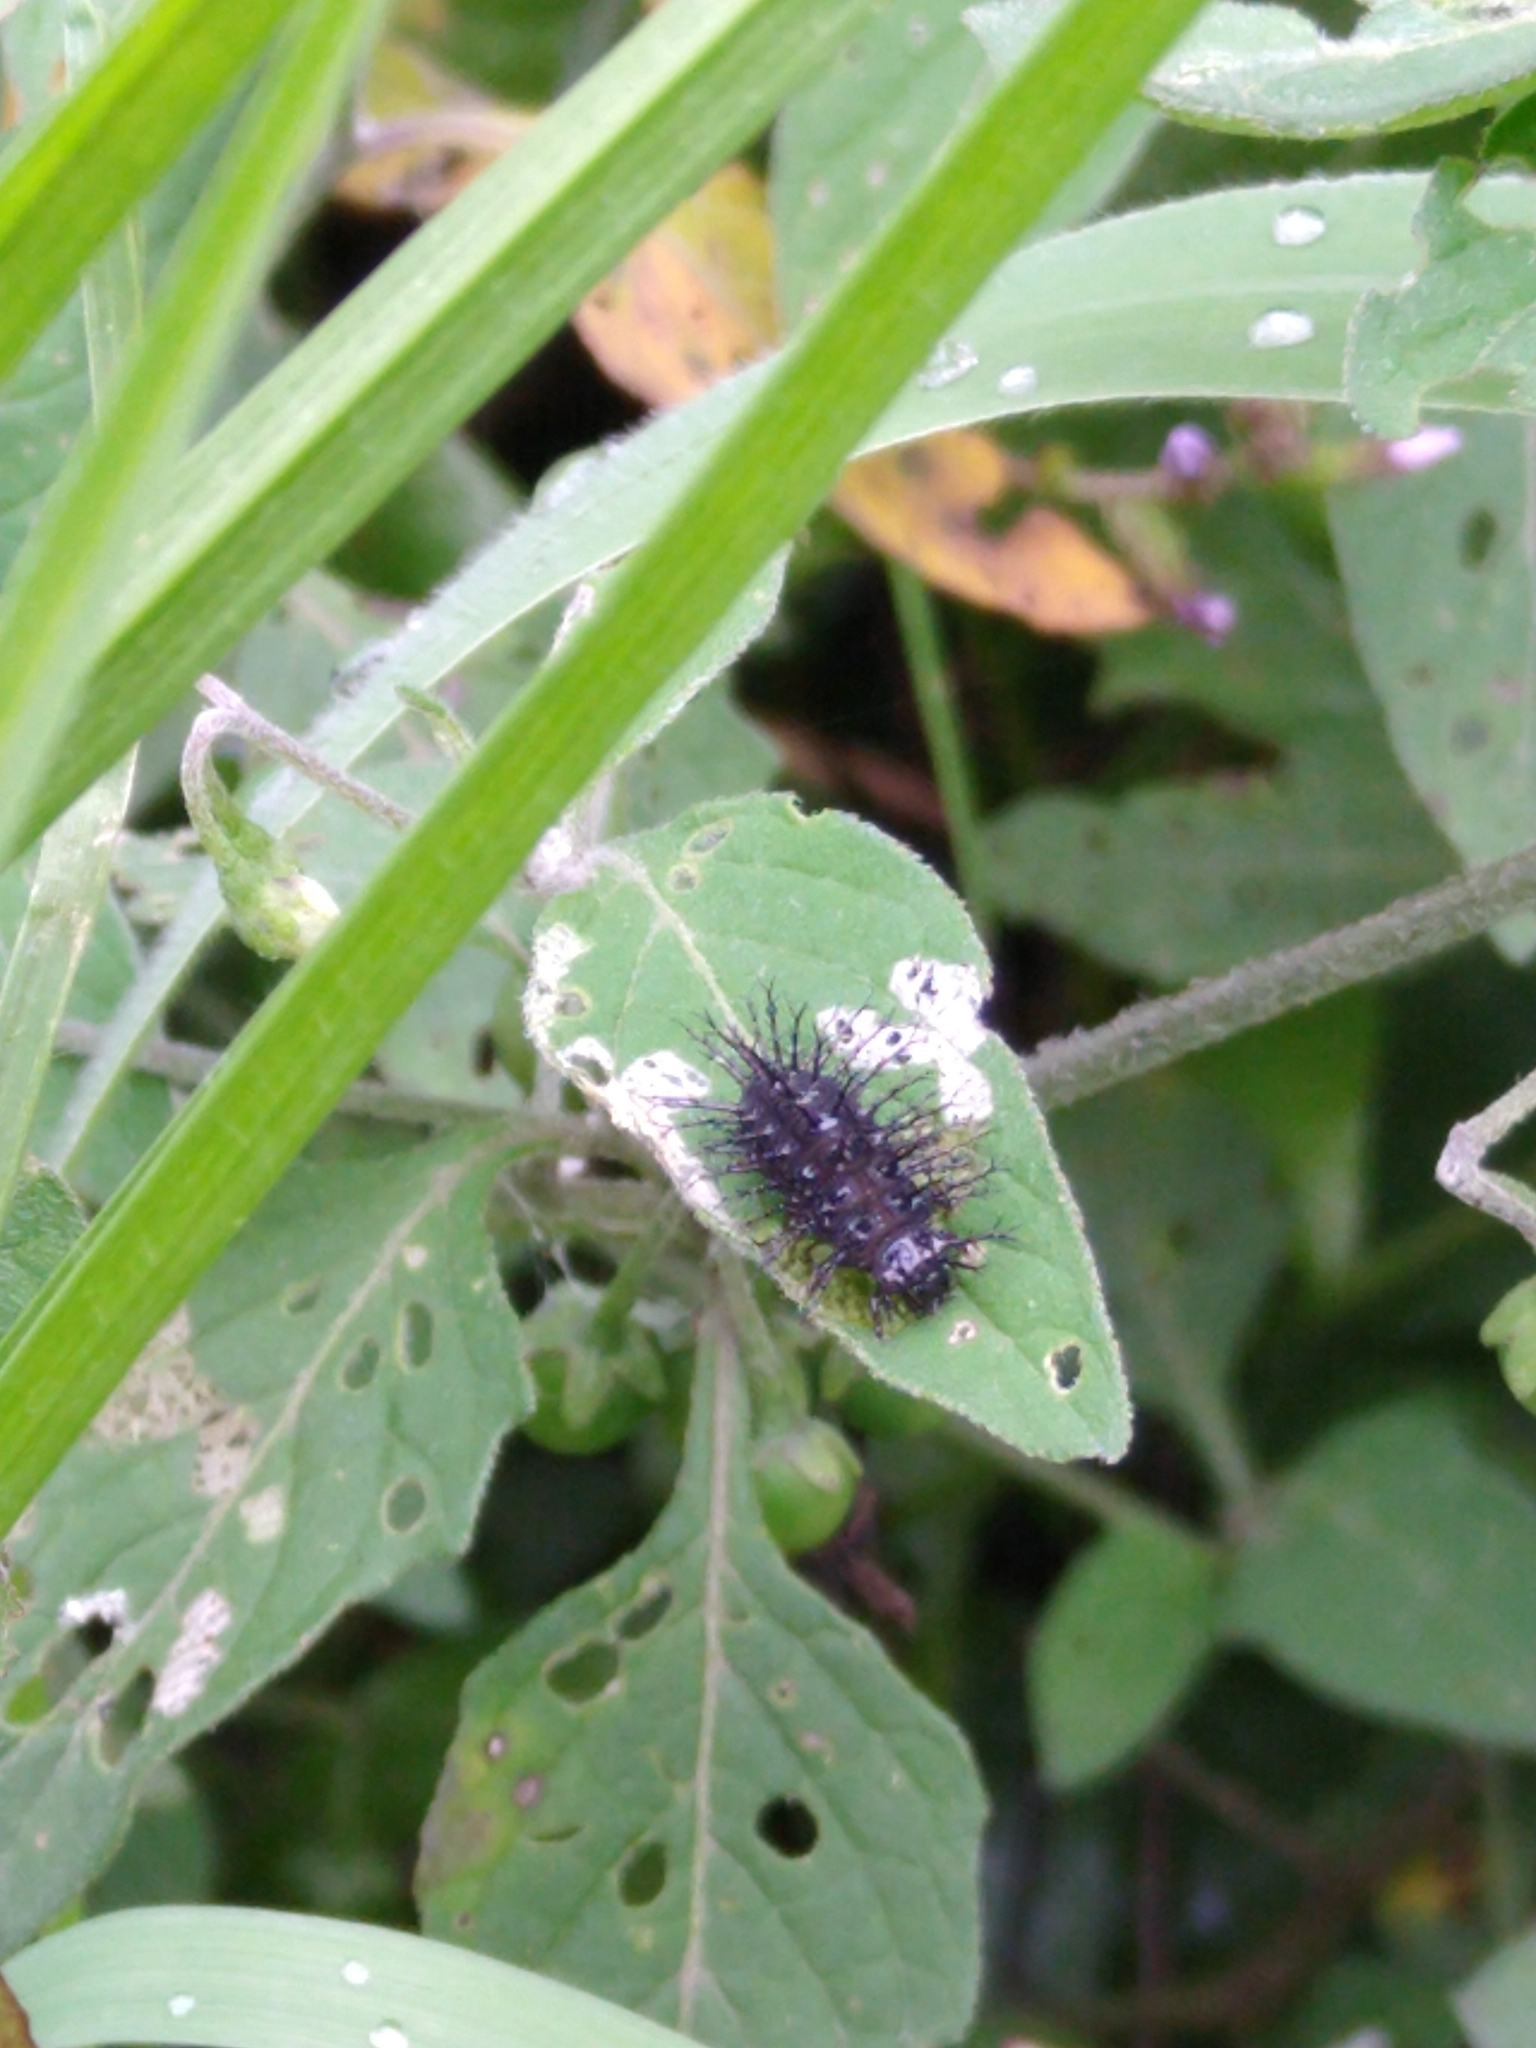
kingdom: Animalia
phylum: Arthropoda
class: Insecta
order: Coleoptera
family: Coccinellidae
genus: Epilachna
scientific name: Epilachna
